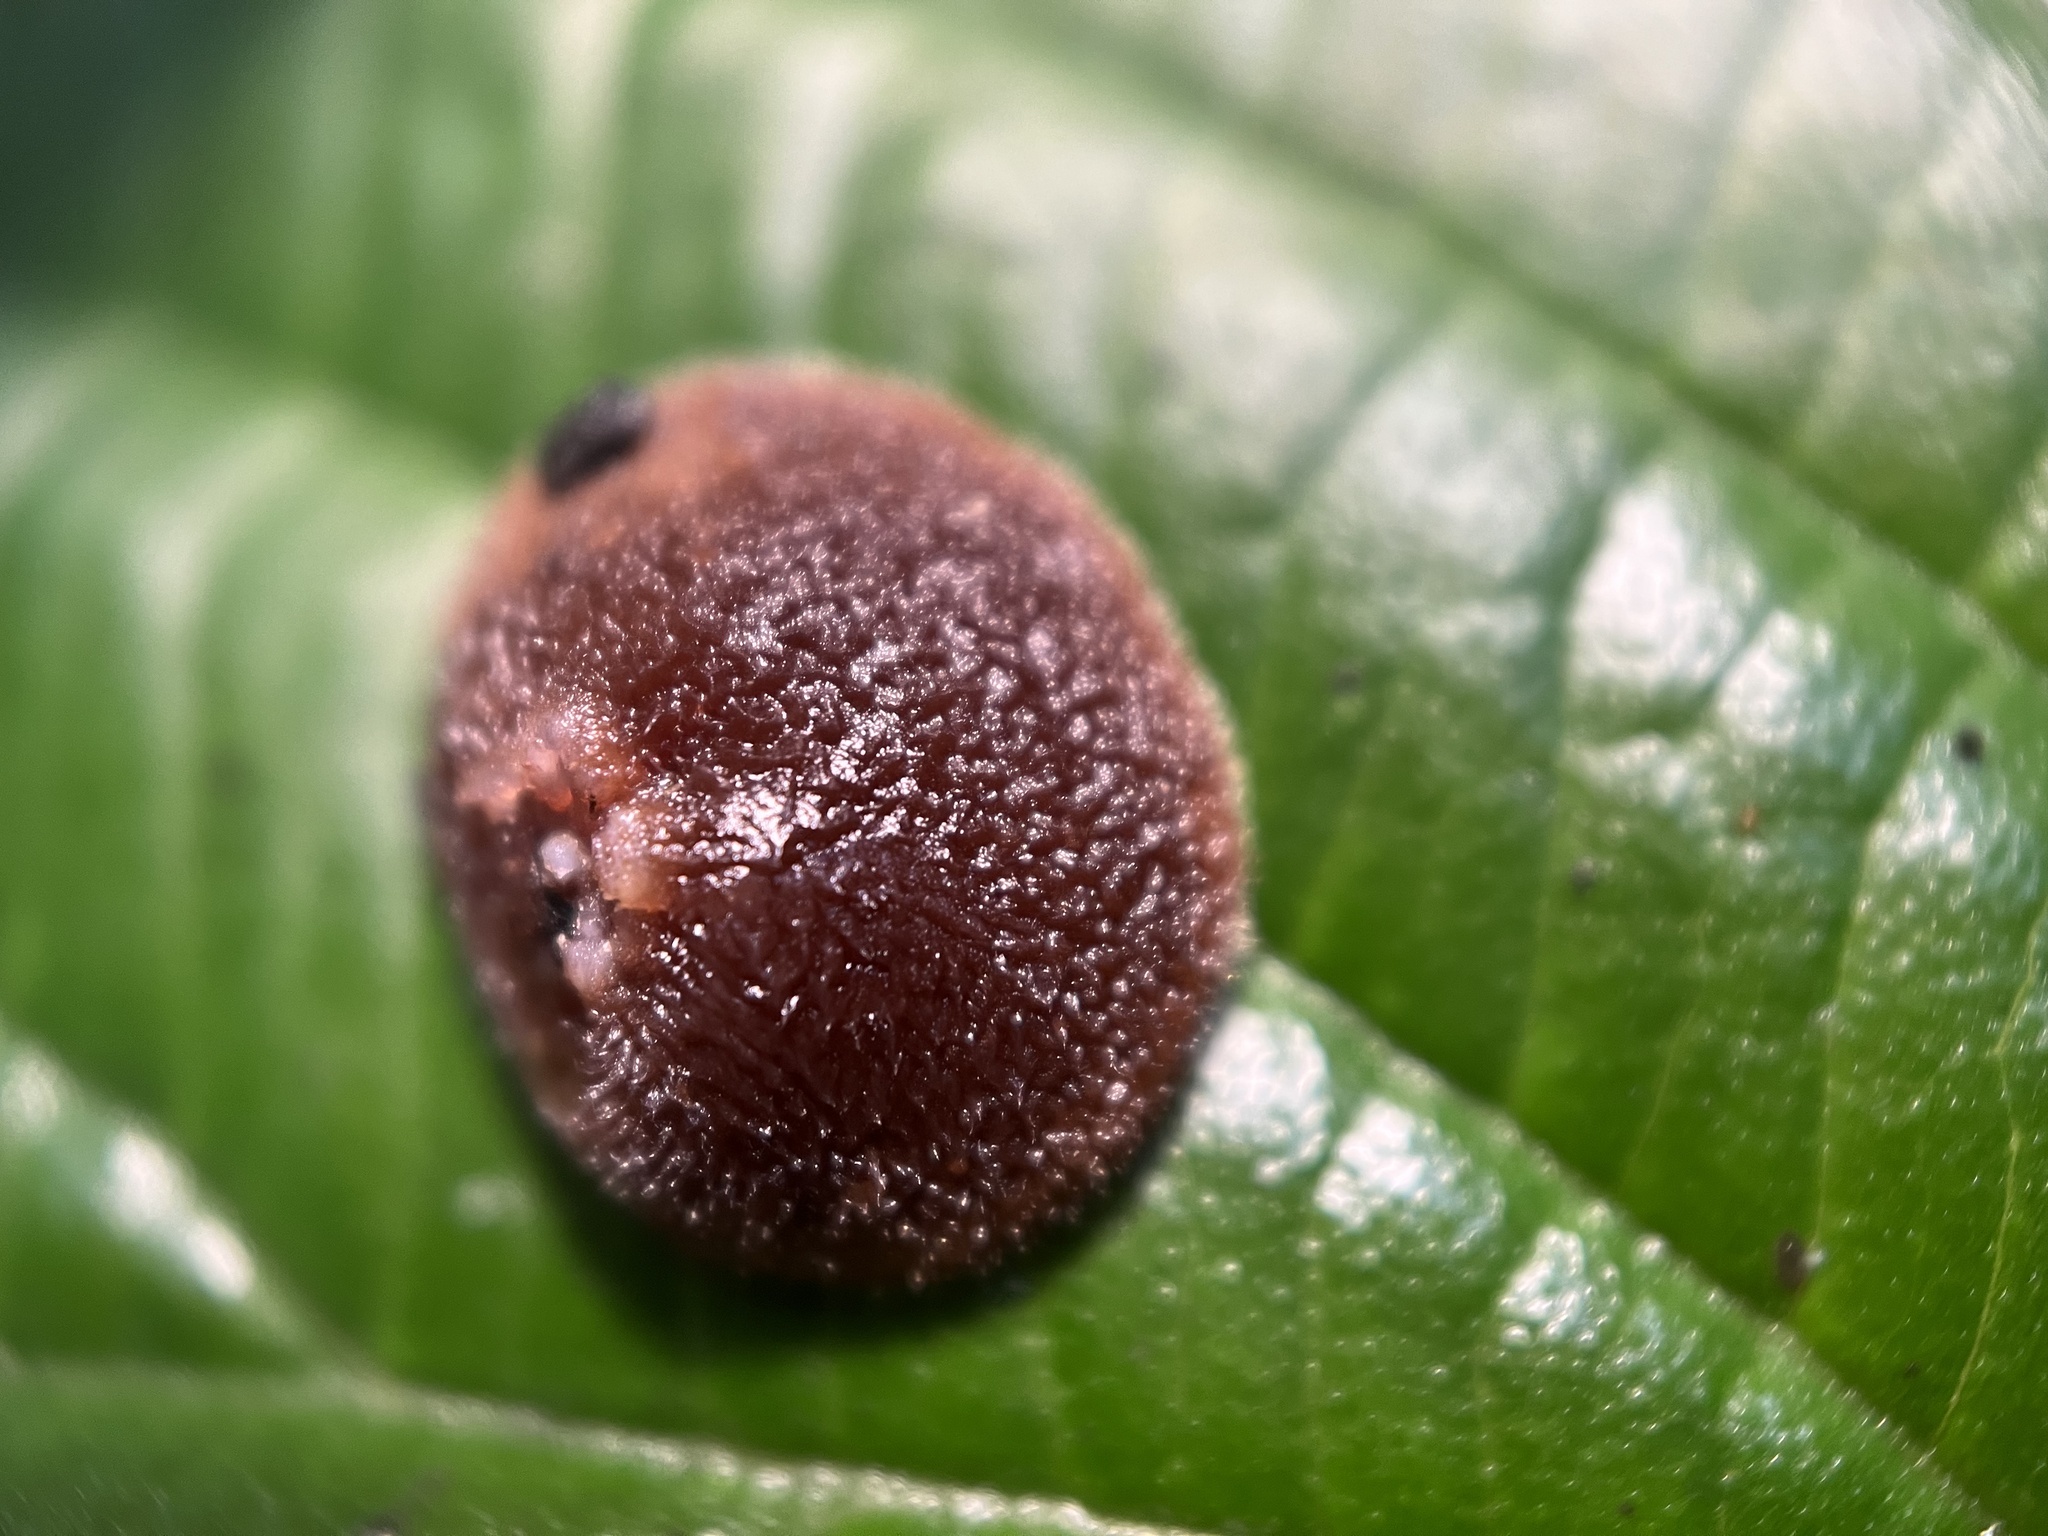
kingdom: Fungi
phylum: Basidiomycota
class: Agaricomycetes
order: Auriculariales
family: Auriculariaceae
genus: Auricularia
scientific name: Auricularia cornea
